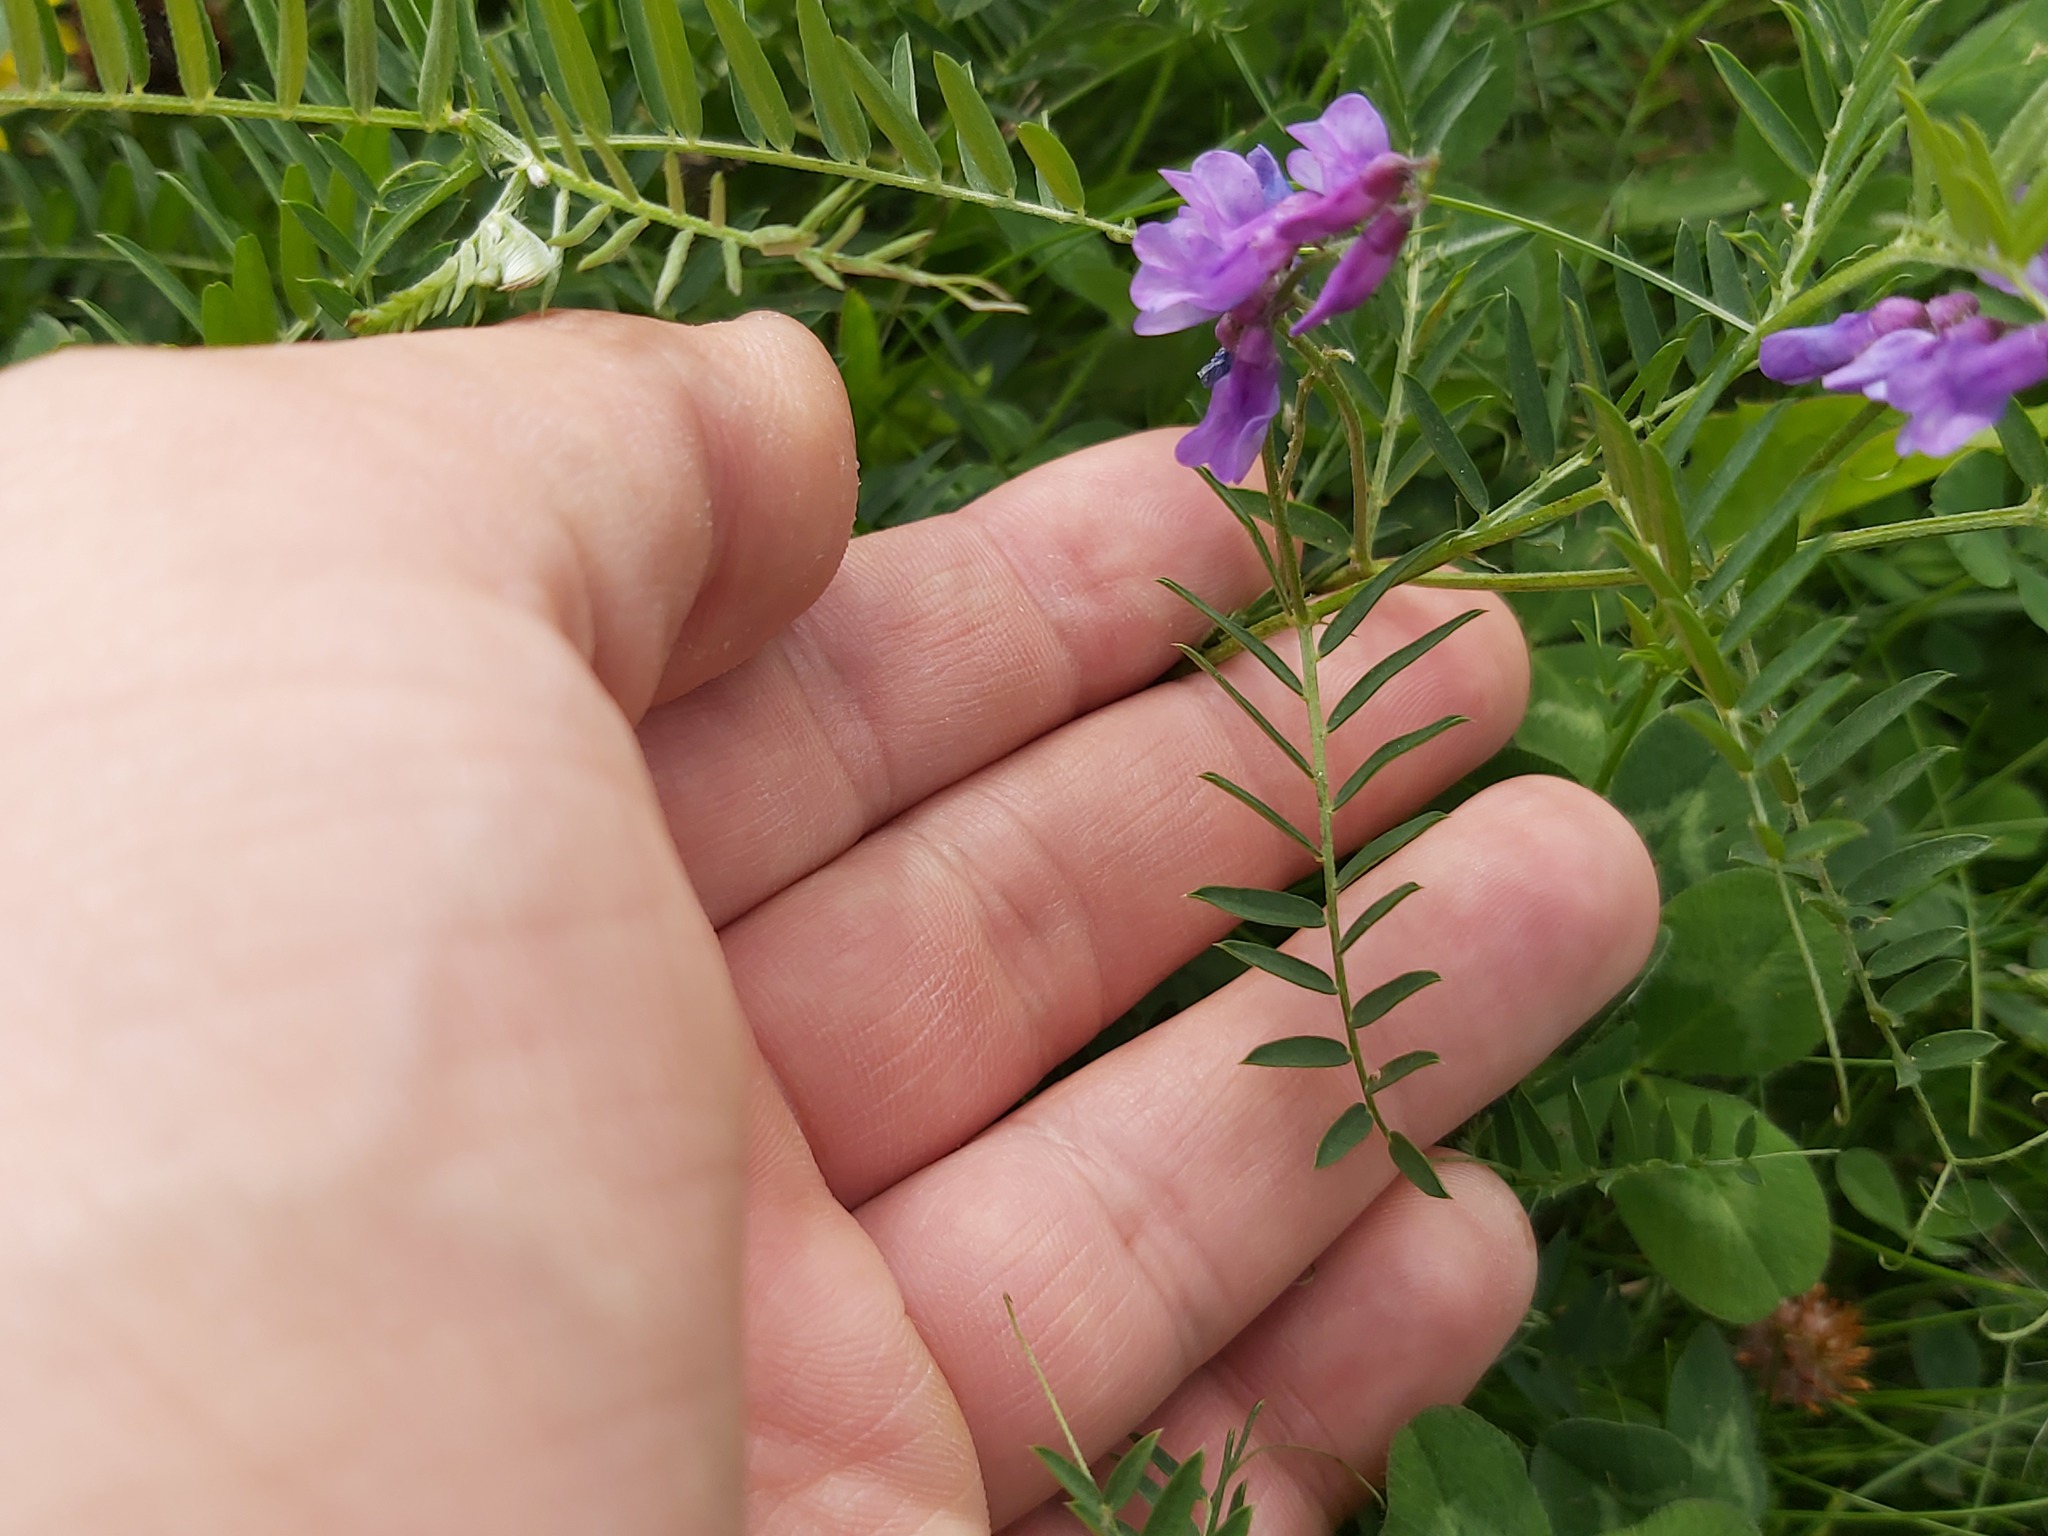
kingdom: Plantae
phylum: Tracheophyta
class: Magnoliopsida
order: Fabales
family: Fabaceae
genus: Vicia
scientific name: Vicia tenuifolia
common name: Fine-leaved vetch
